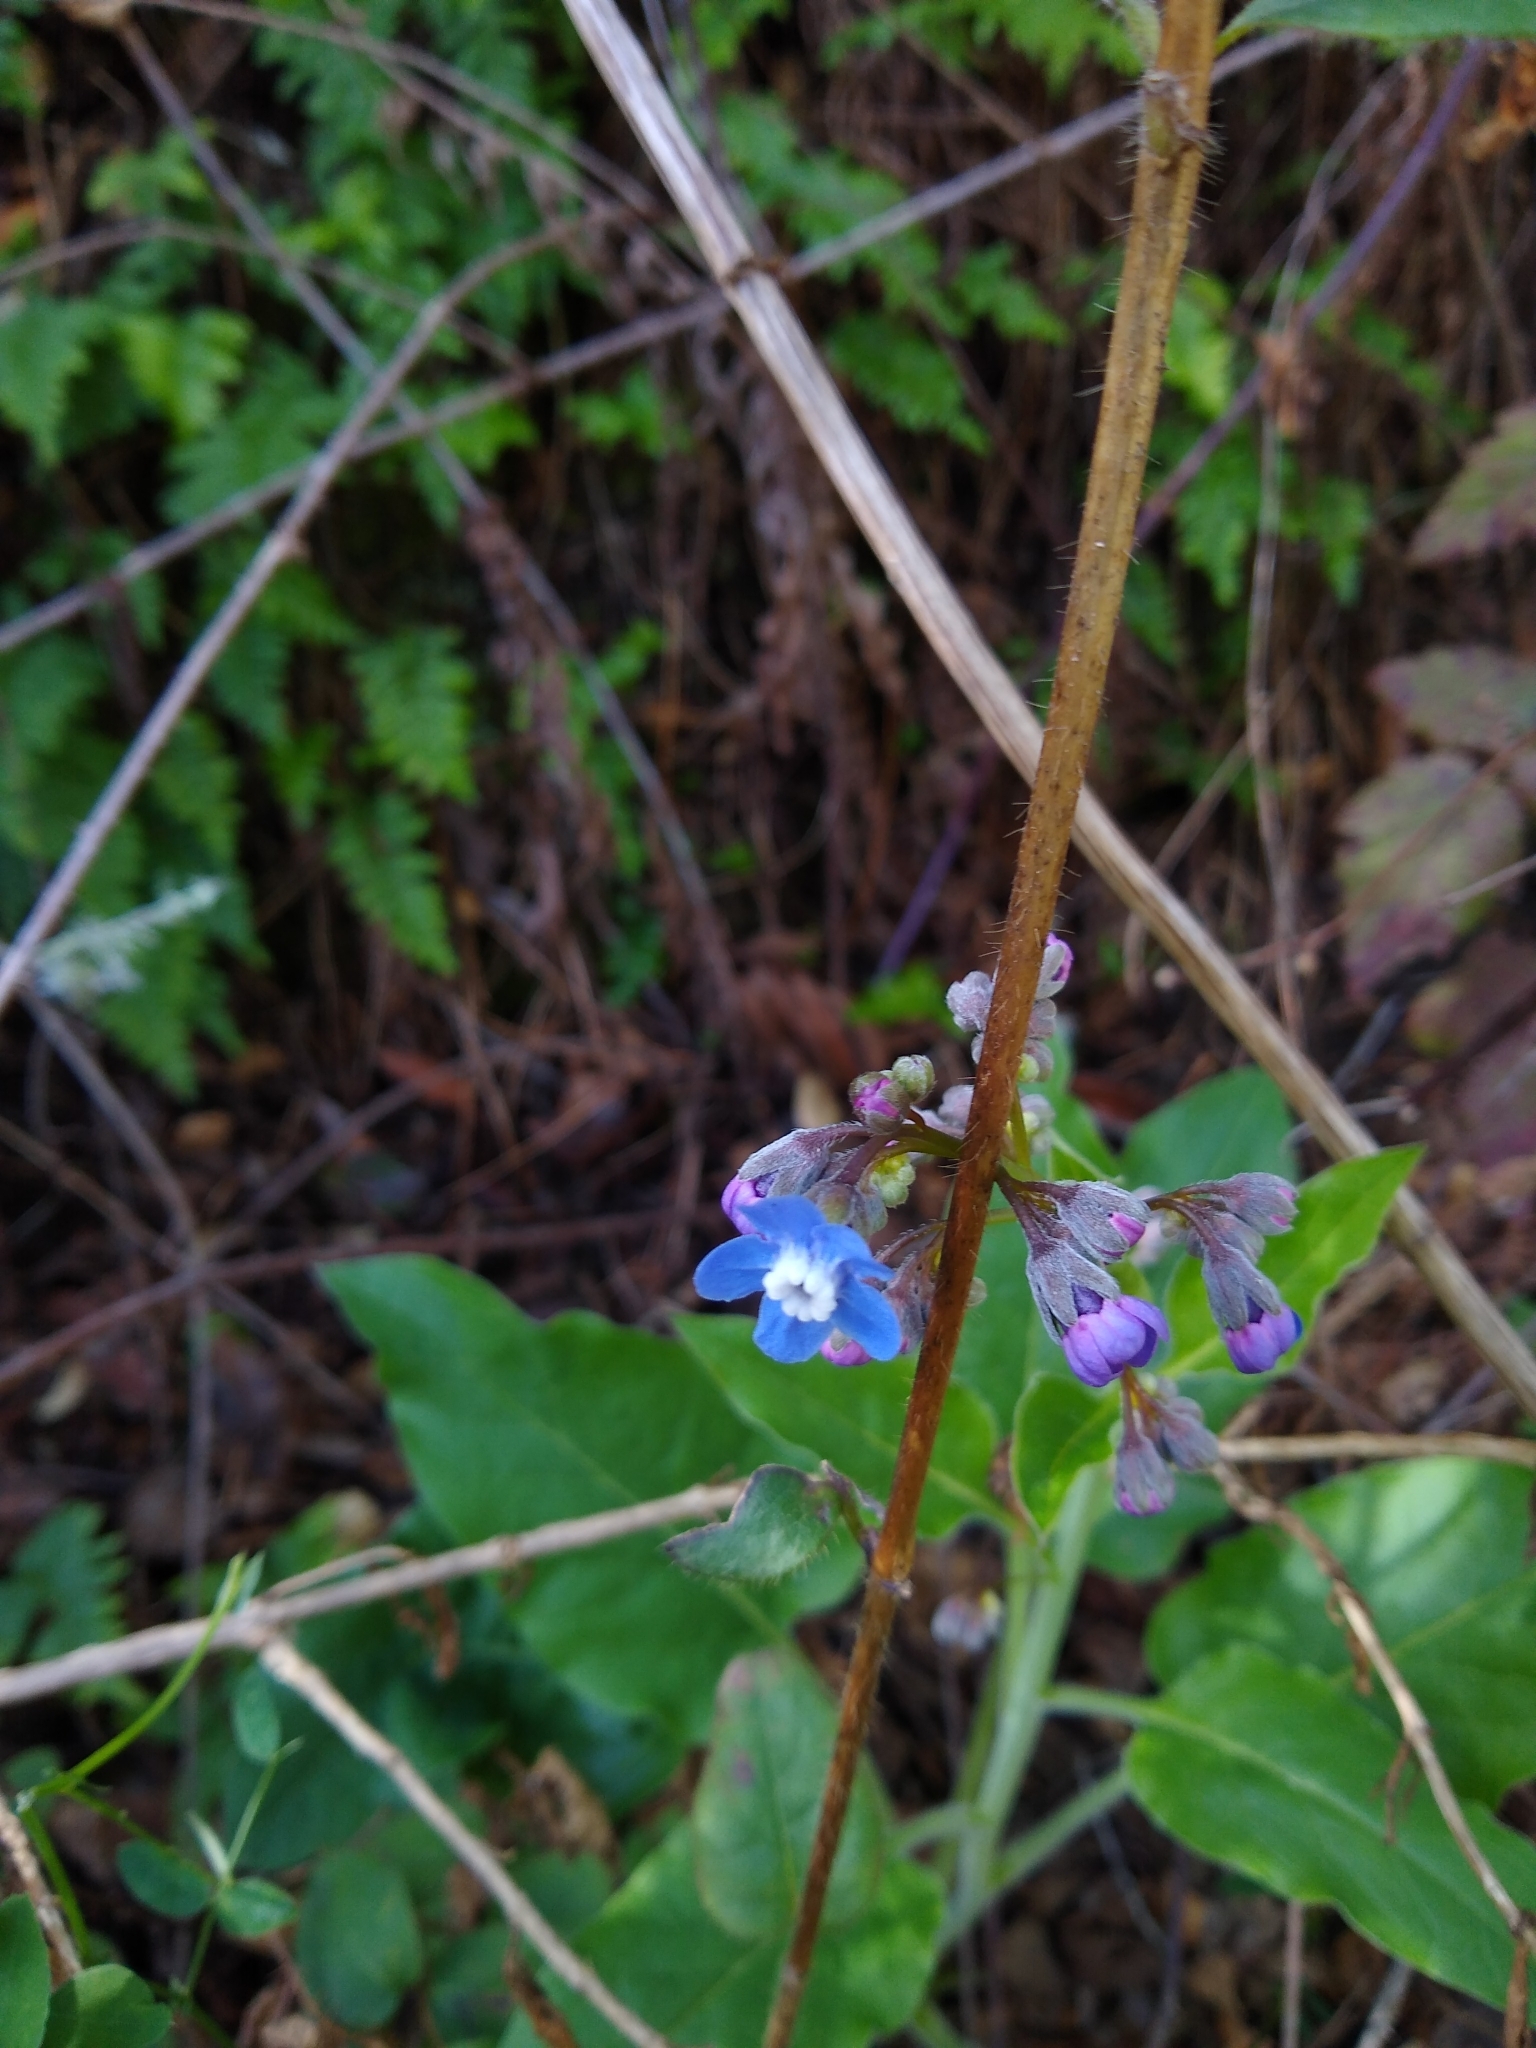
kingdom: Plantae
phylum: Tracheophyta
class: Magnoliopsida
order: Boraginales
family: Boraginaceae
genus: Adelinia
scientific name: Adelinia grande
